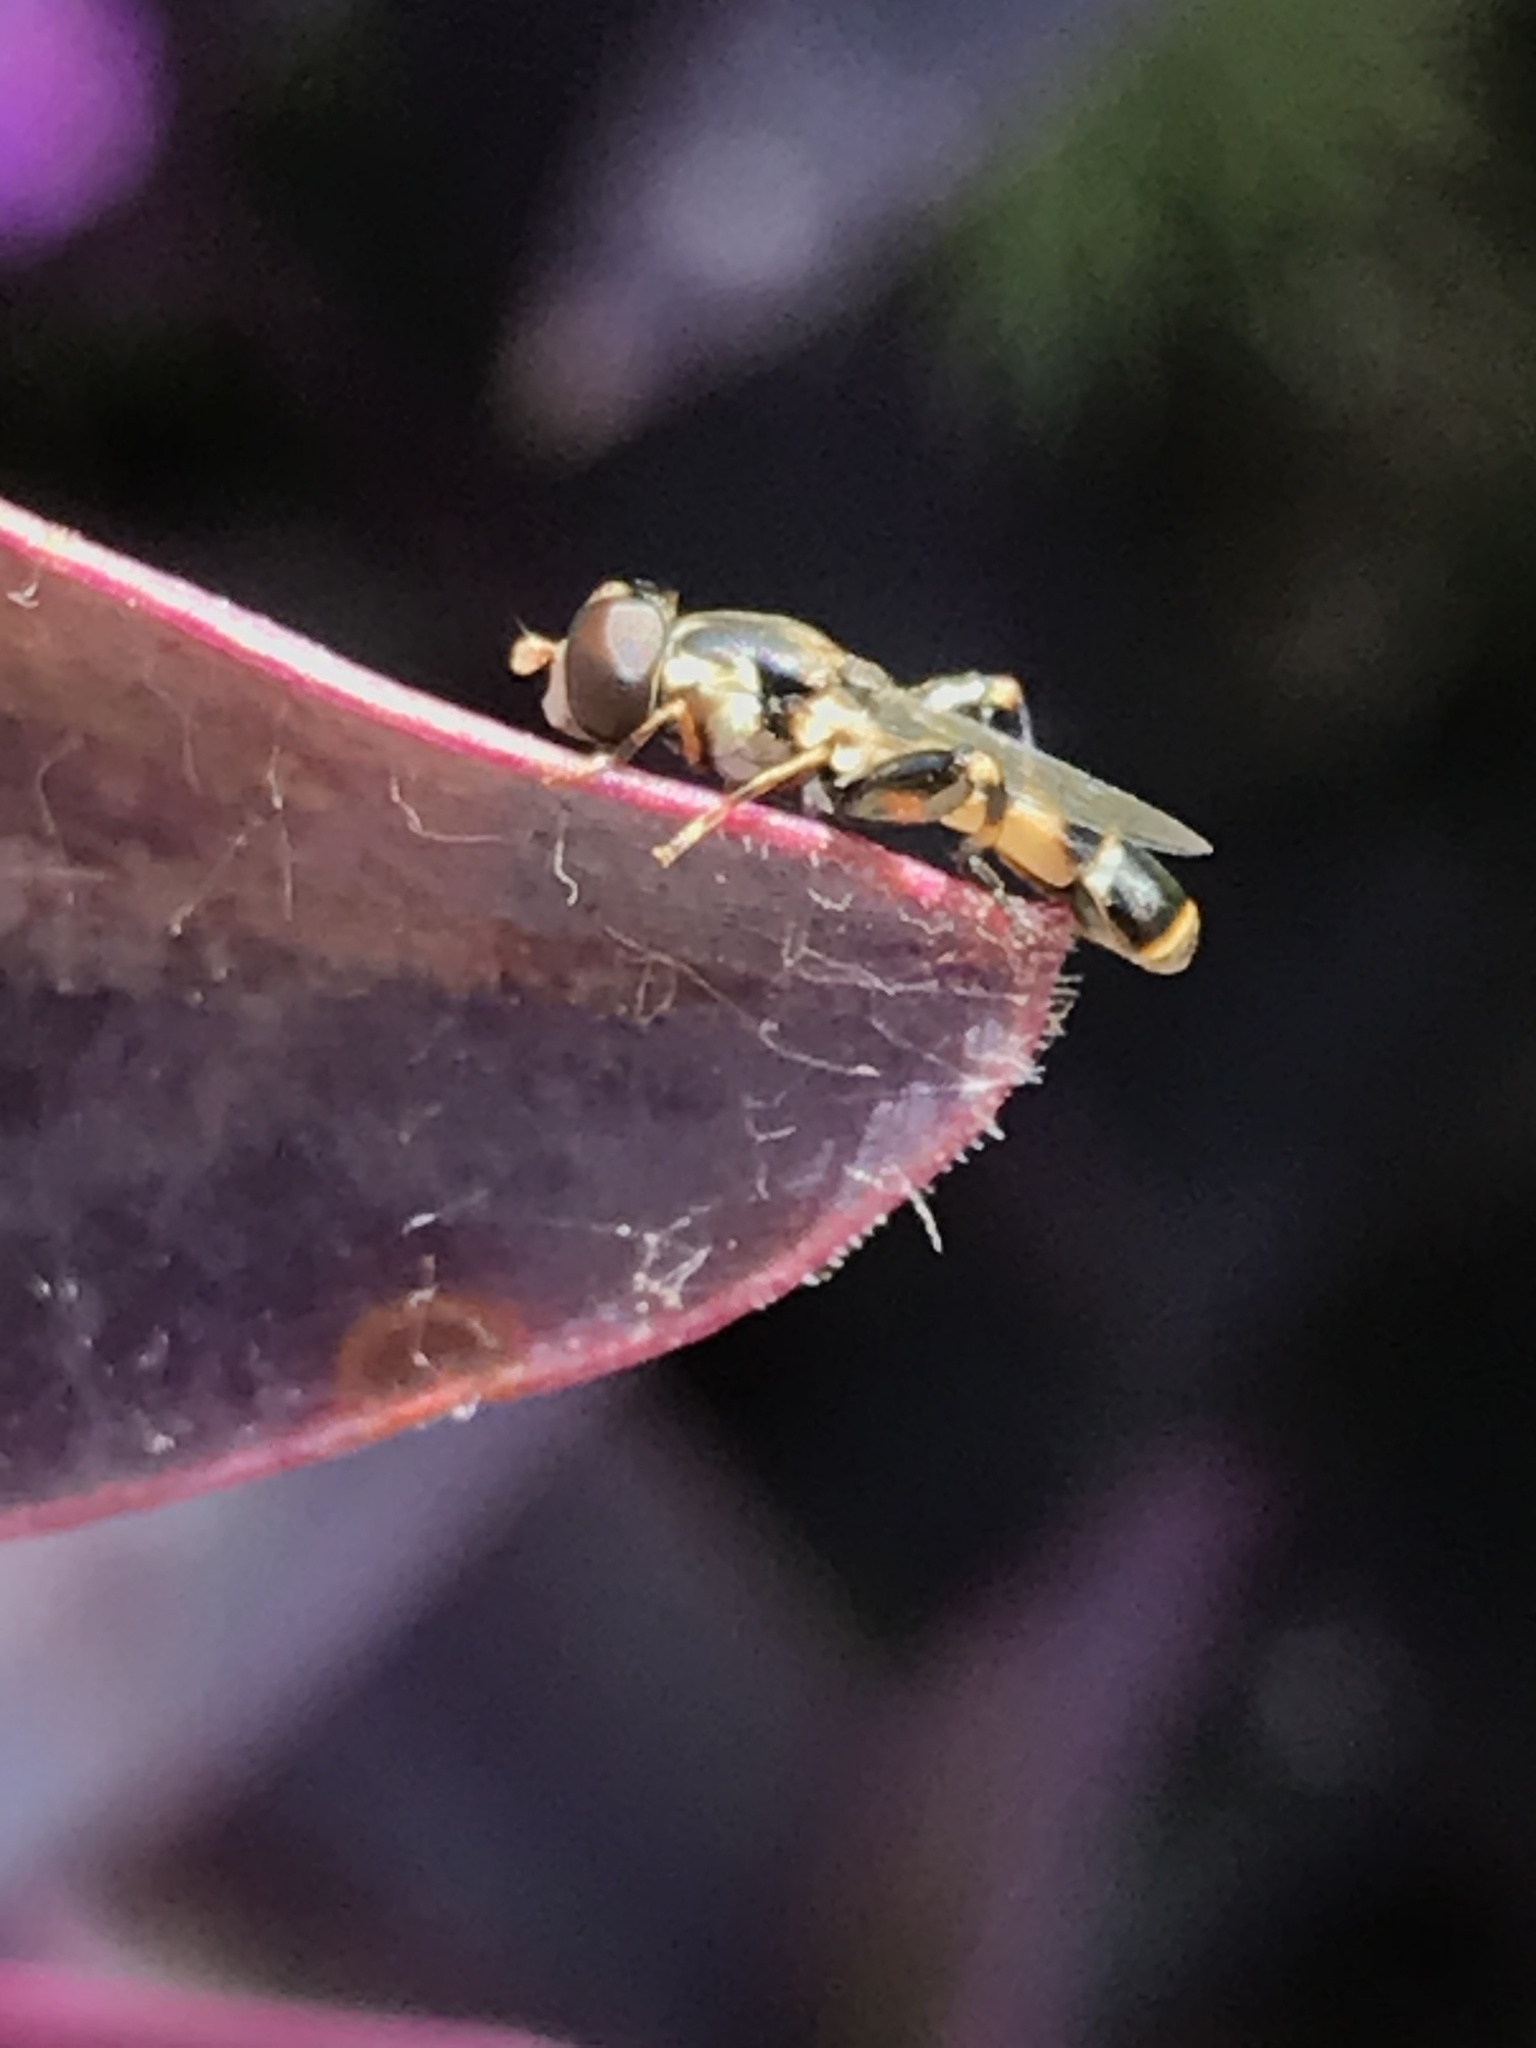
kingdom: Animalia
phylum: Arthropoda
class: Insecta
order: Diptera
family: Syrphidae
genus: Syritta
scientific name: Syritta pipiens
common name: Hover fly
